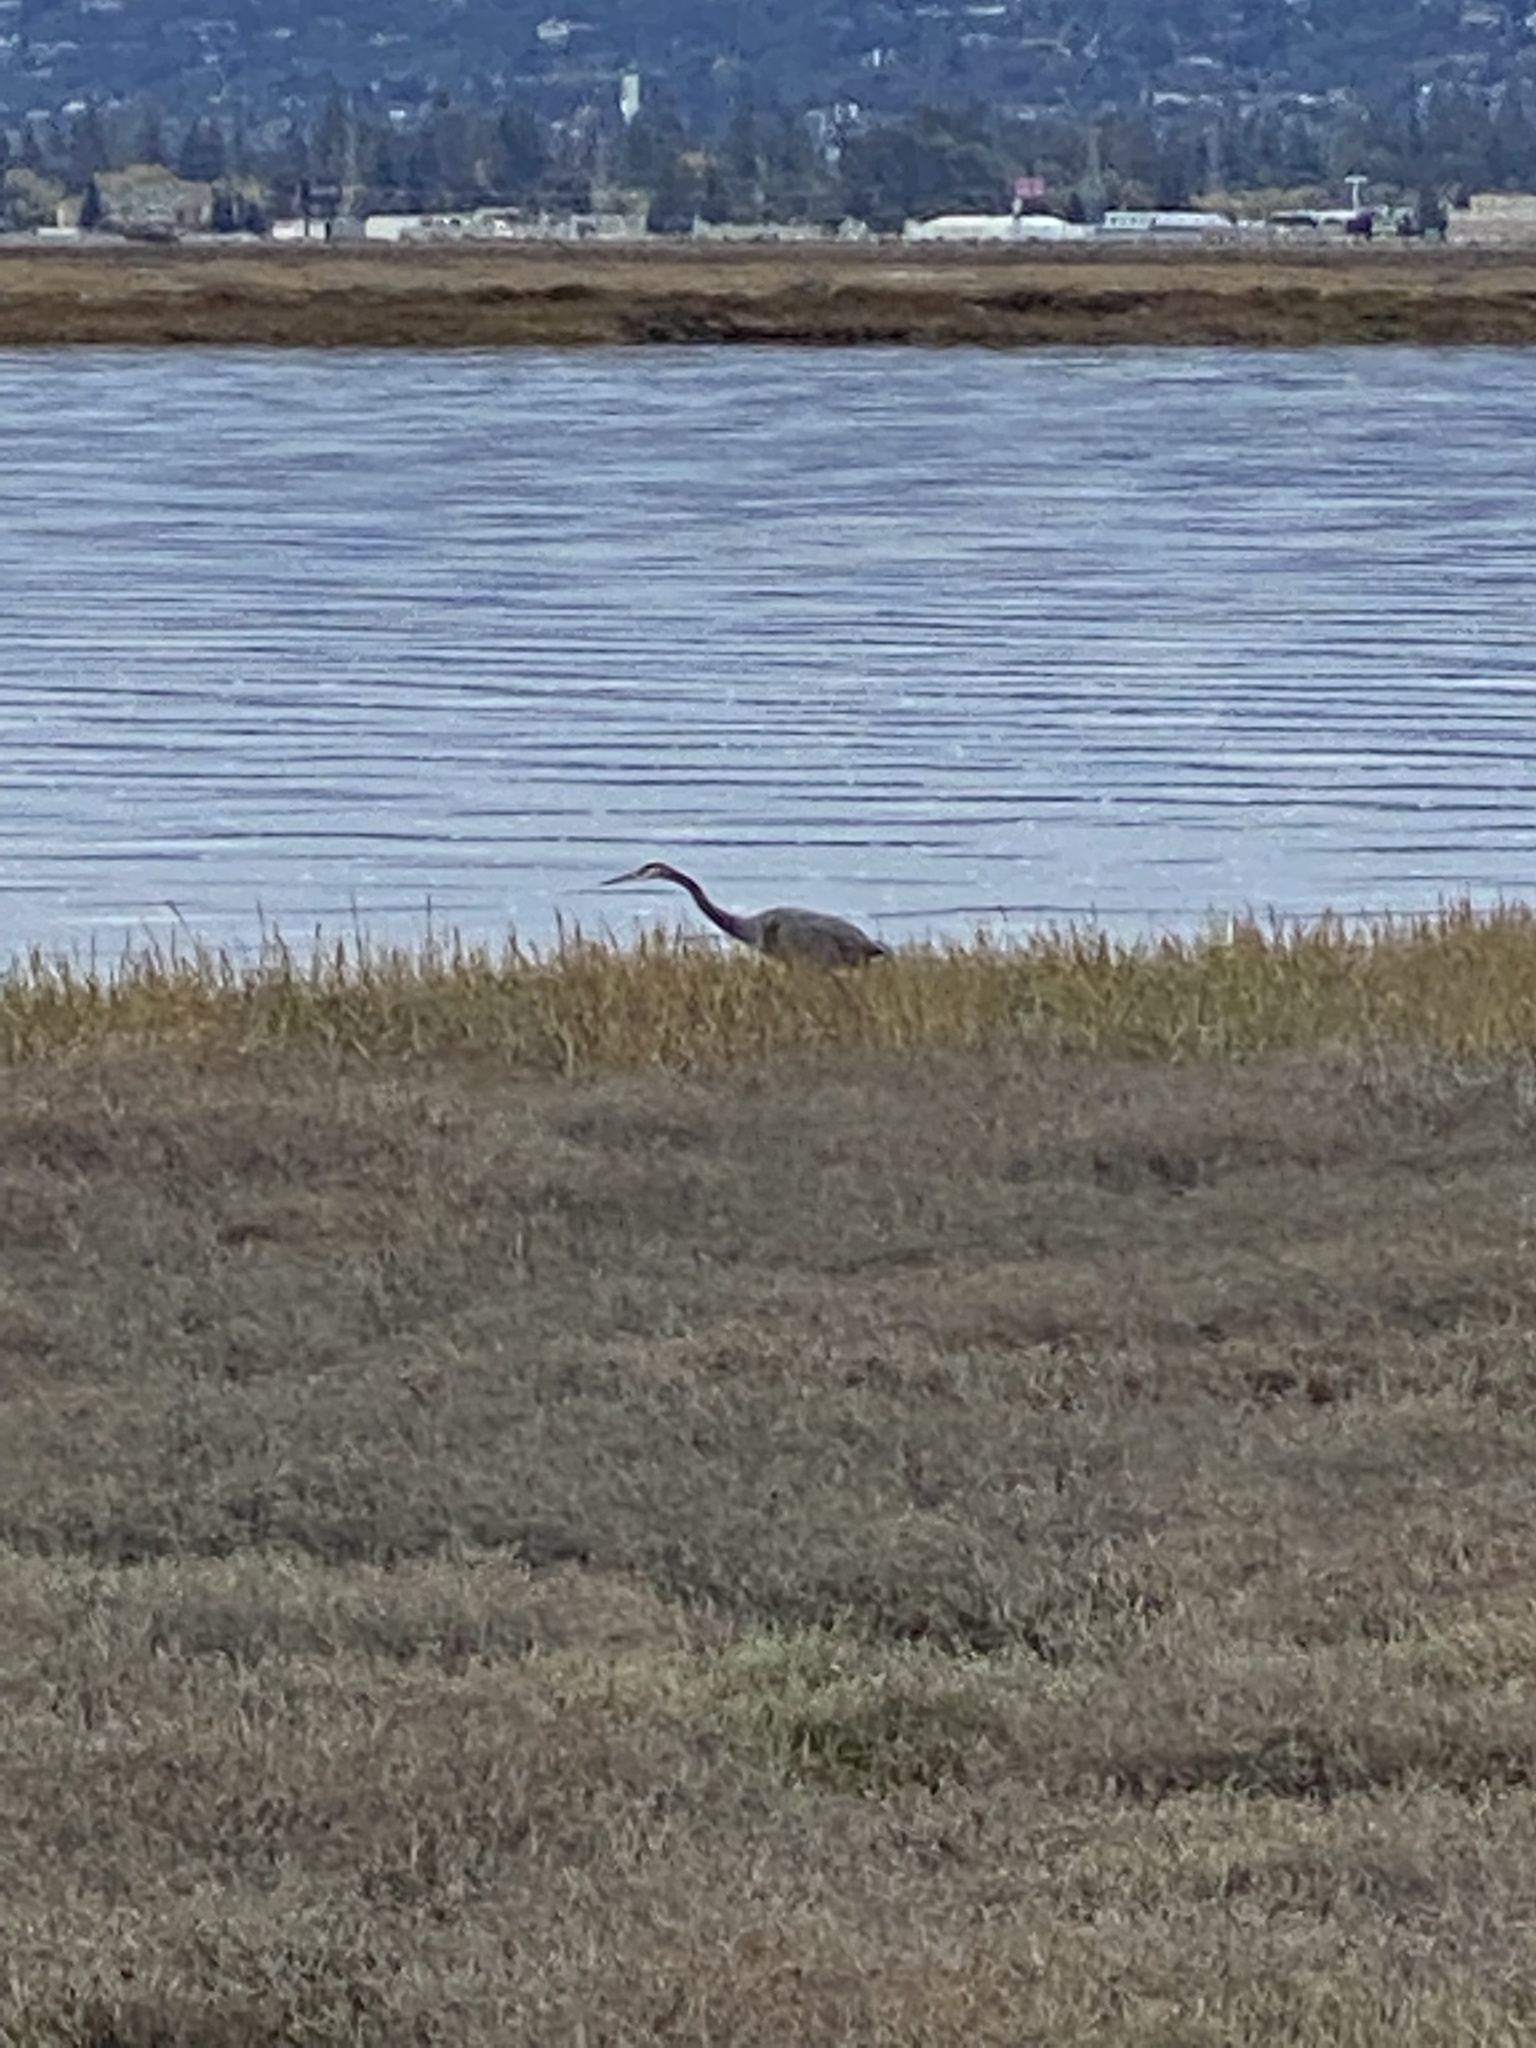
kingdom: Animalia
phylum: Chordata
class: Aves
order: Pelecaniformes
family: Ardeidae
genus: Ardea
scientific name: Ardea herodias
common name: Great blue heron
